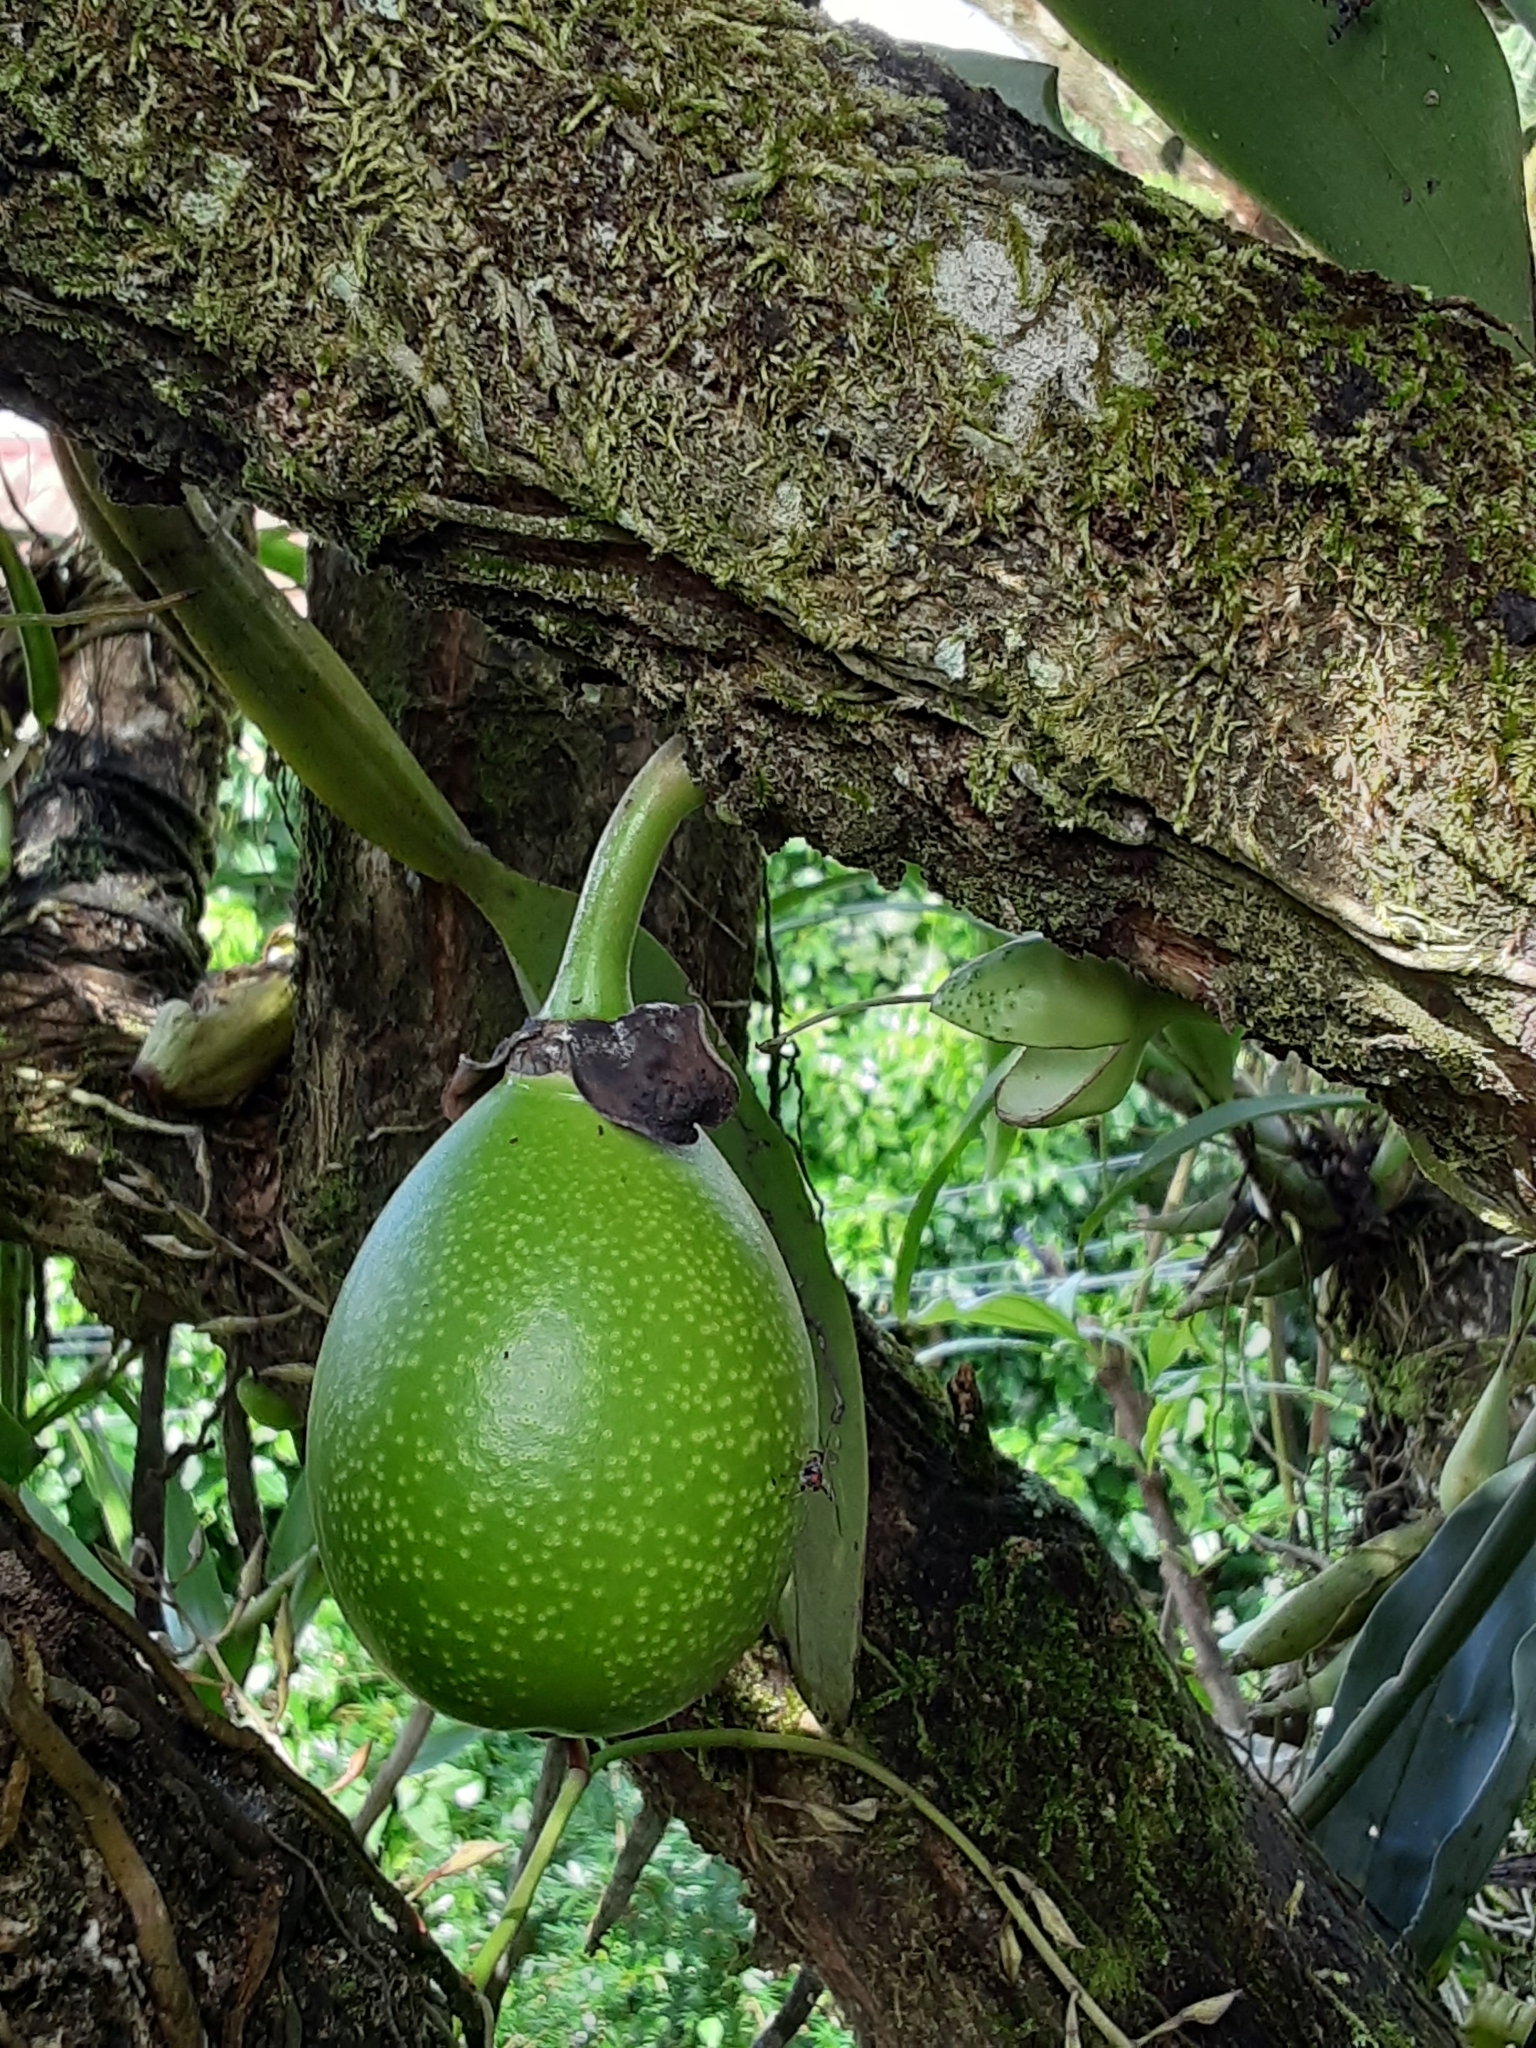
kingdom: Plantae
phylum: Tracheophyta
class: Magnoliopsida
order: Lamiales
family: Bignoniaceae
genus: Crescentia
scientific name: Crescentia cujete
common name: Calabash
